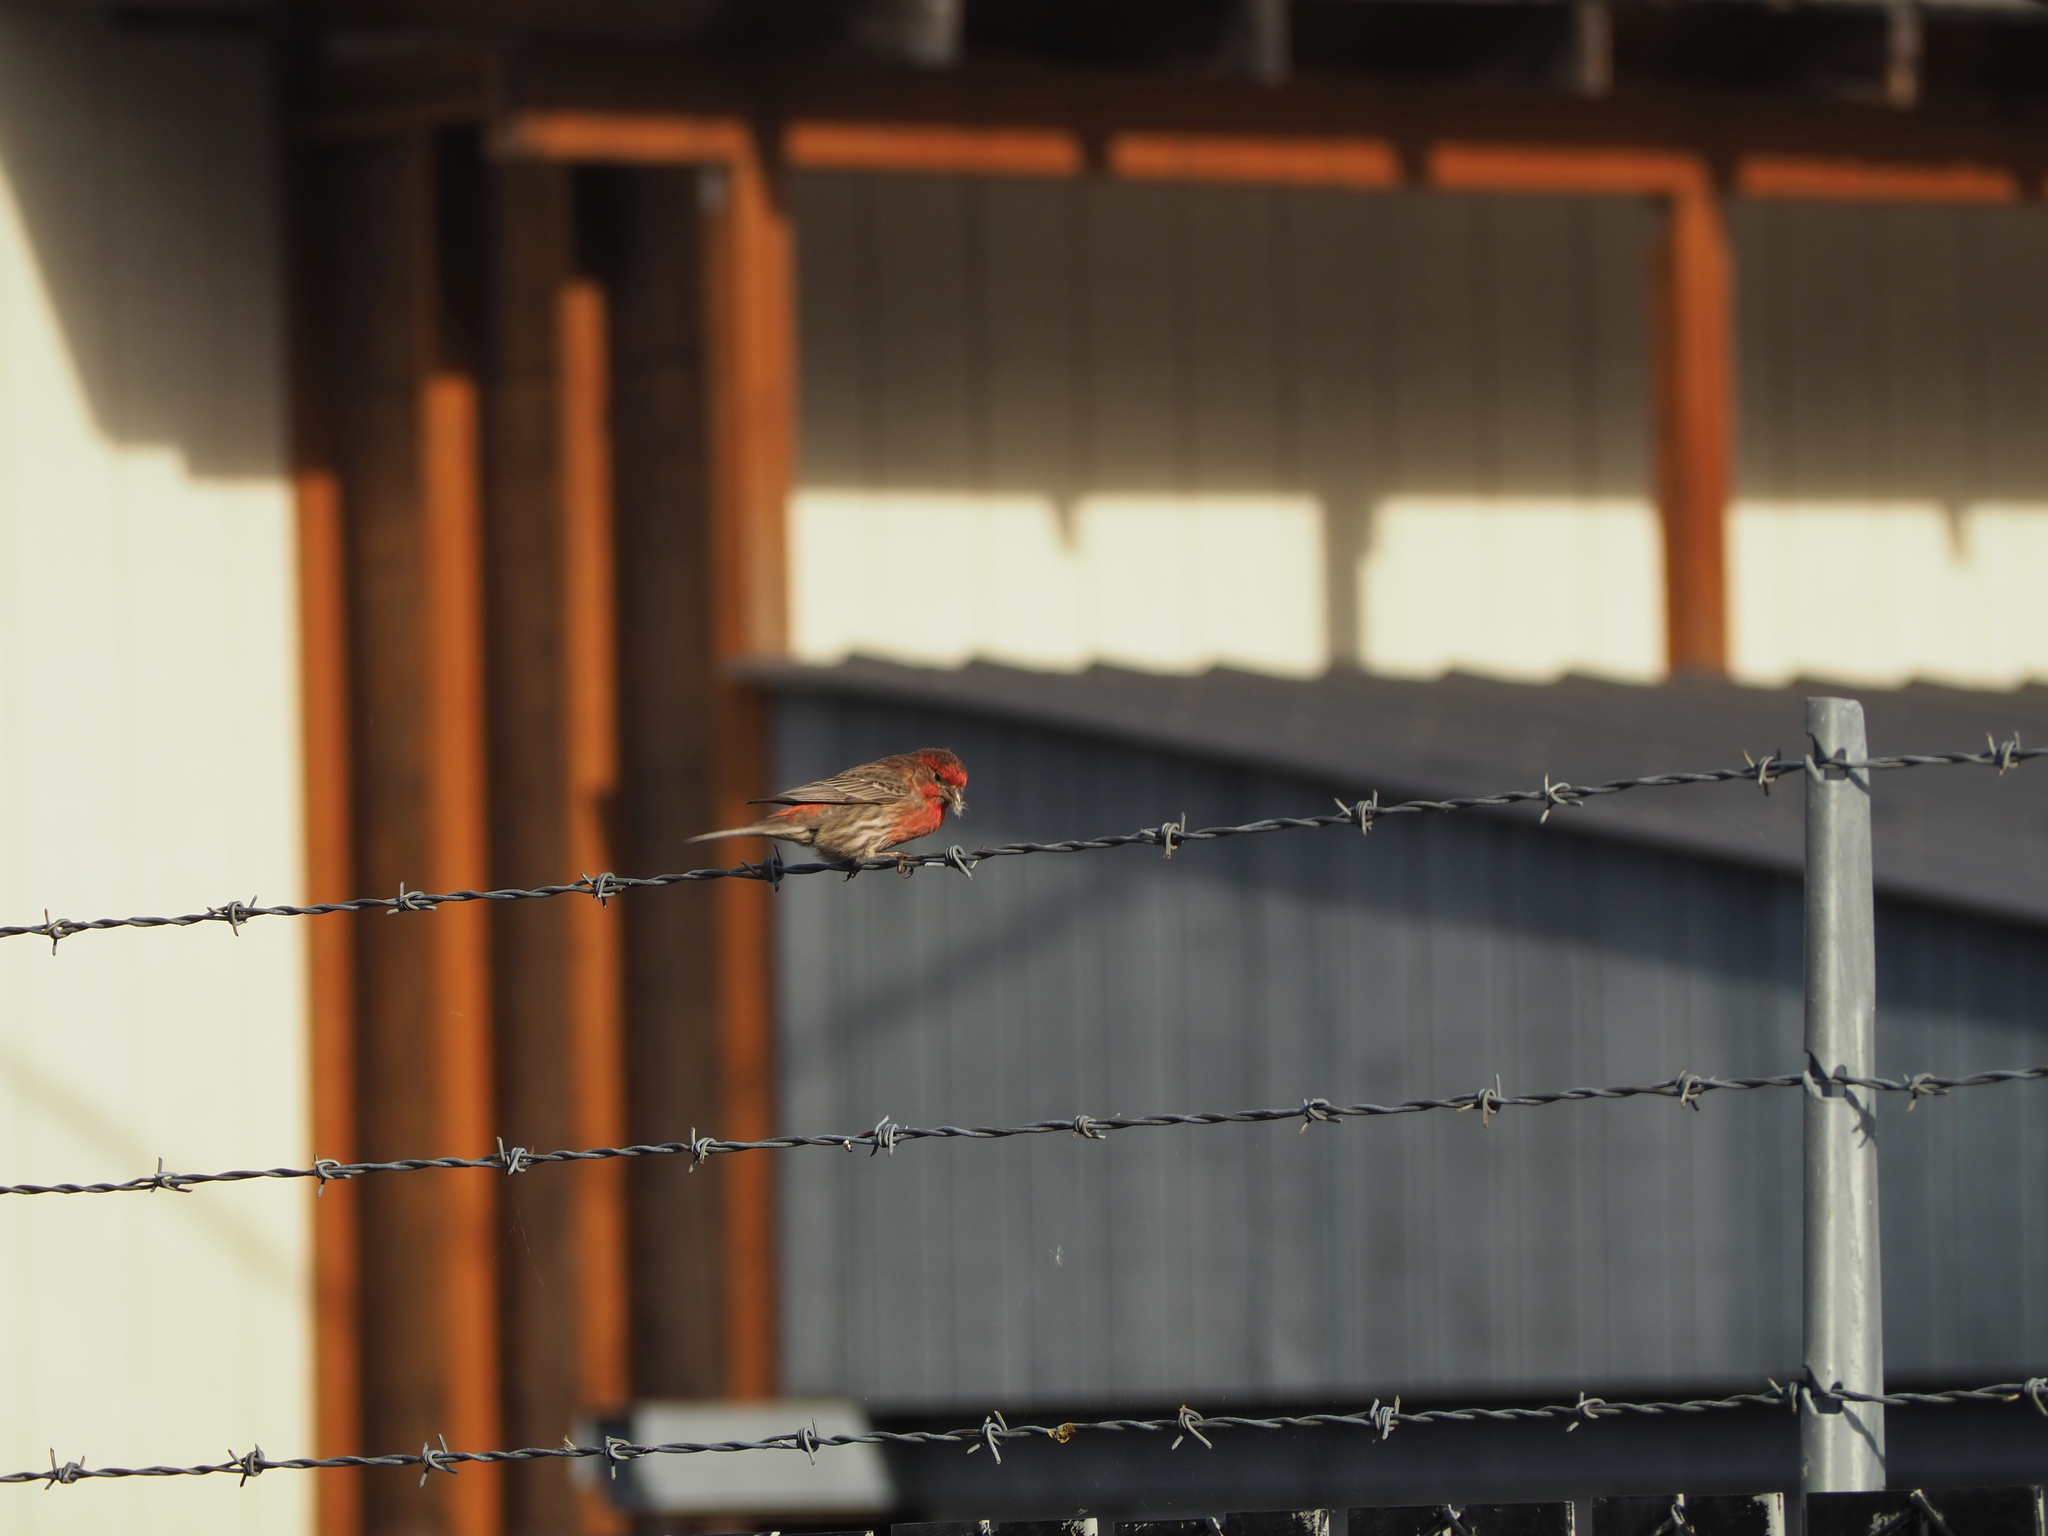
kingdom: Animalia
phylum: Chordata
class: Aves
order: Passeriformes
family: Fringillidae
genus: Haemorhous
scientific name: Haemorhous mexicanus
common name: House finch
